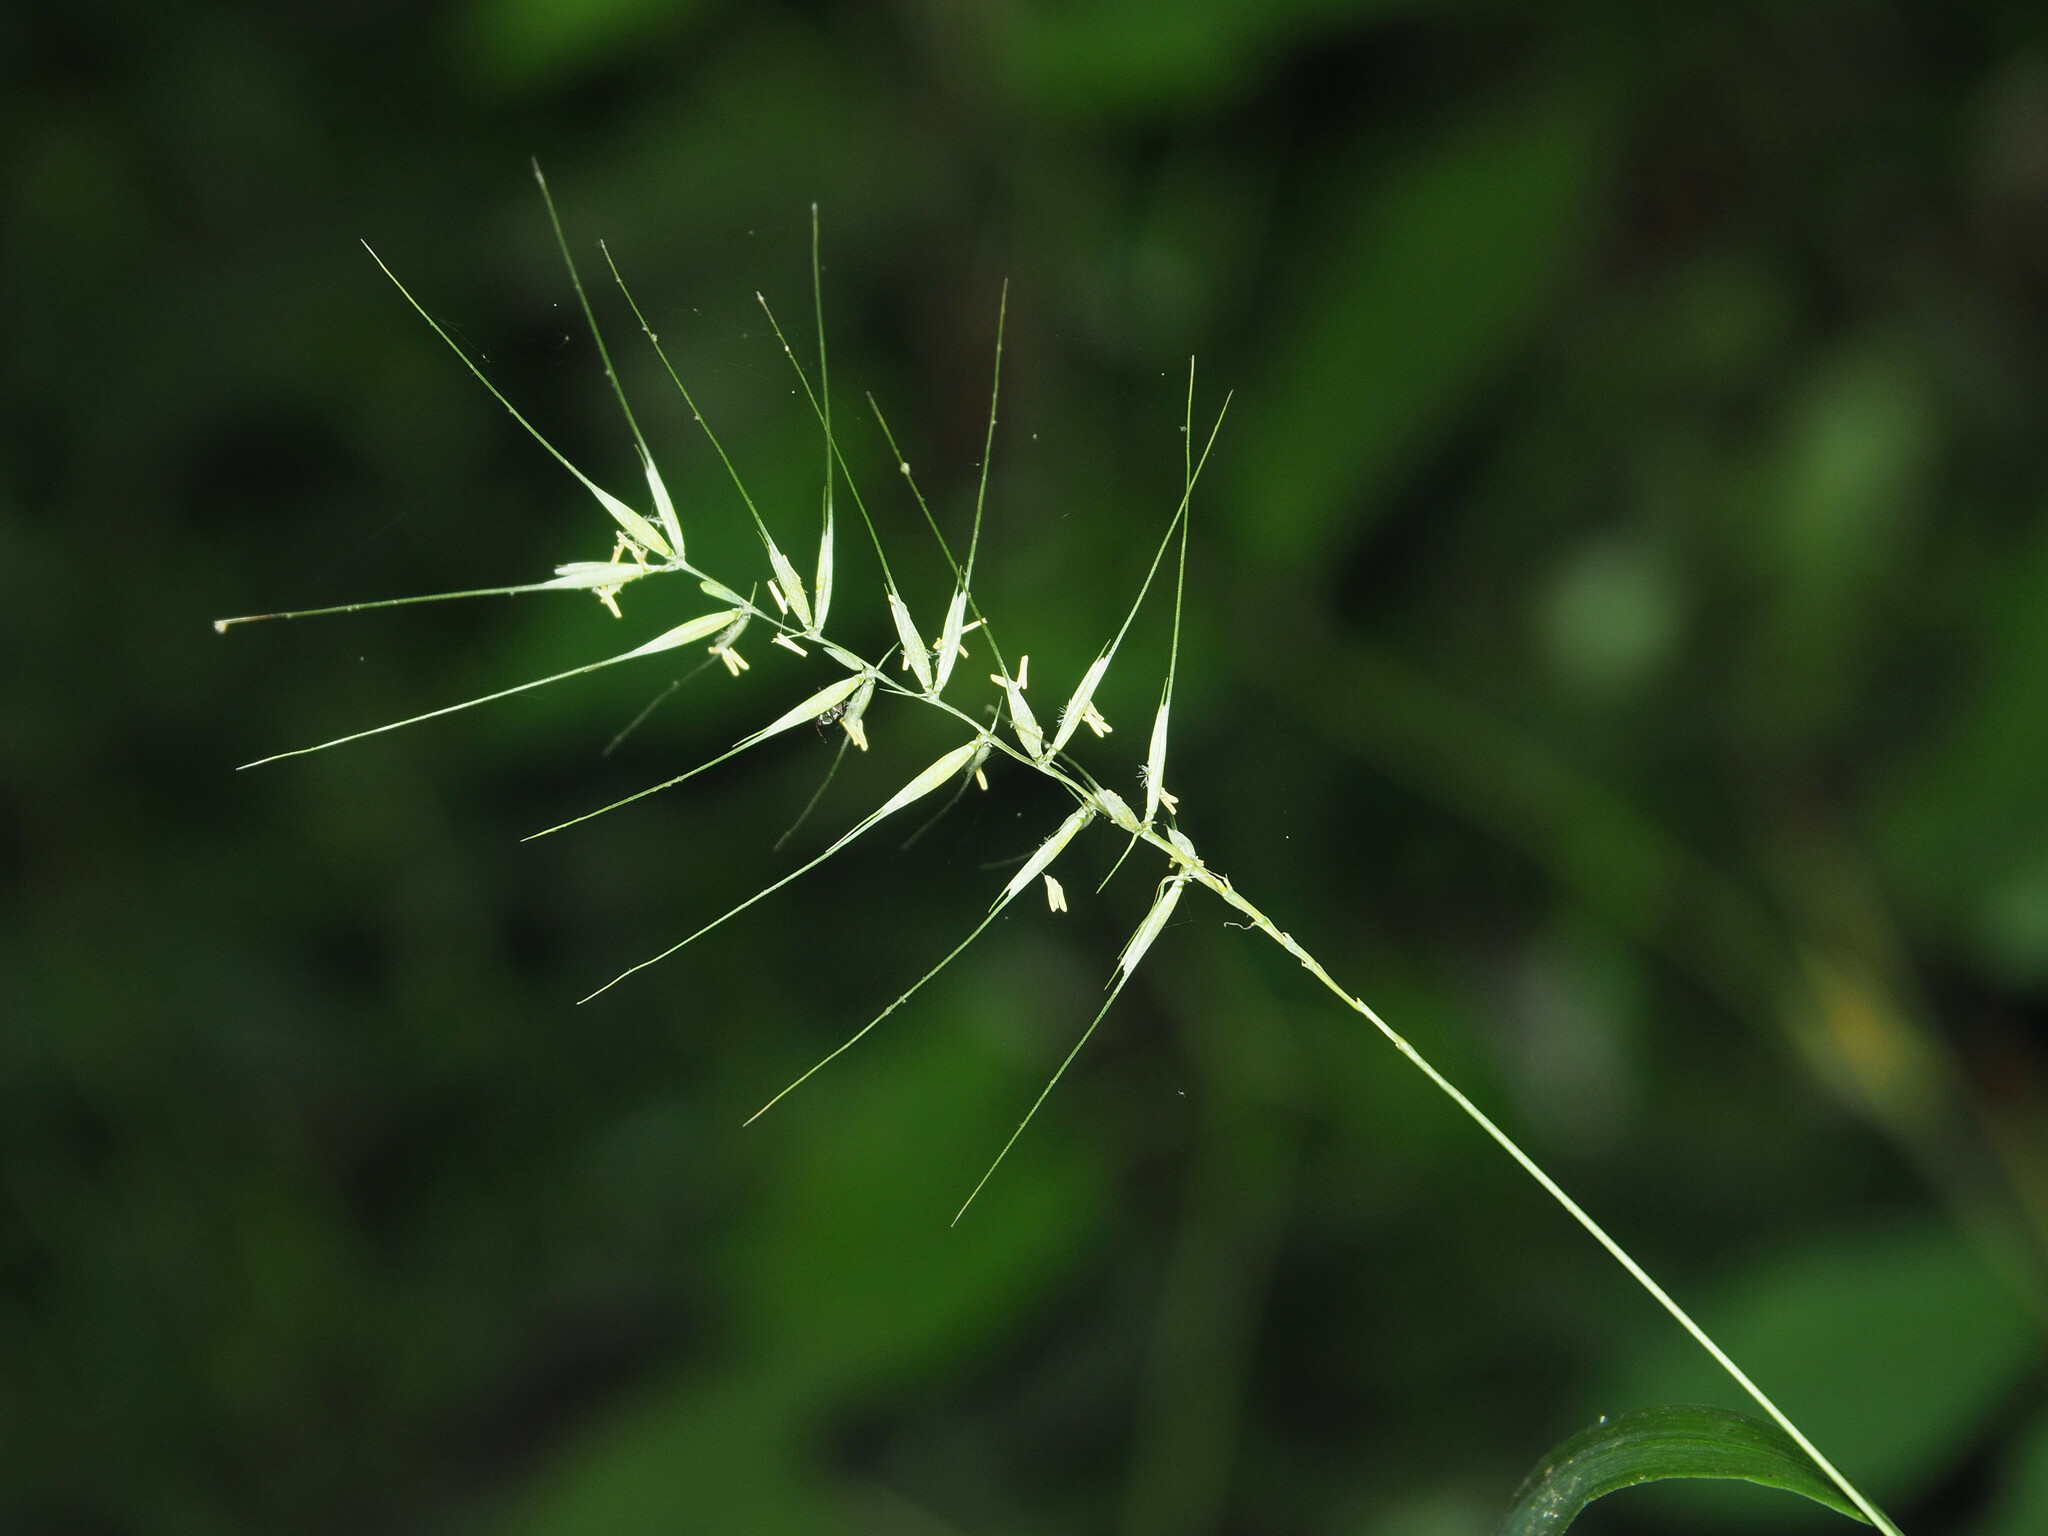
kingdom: Plantae
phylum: Tracheophyta
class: Liliopsida
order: Poales
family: Poaceae
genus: Elymus
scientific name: Elymus hystrix
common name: Bottlebrush grass
